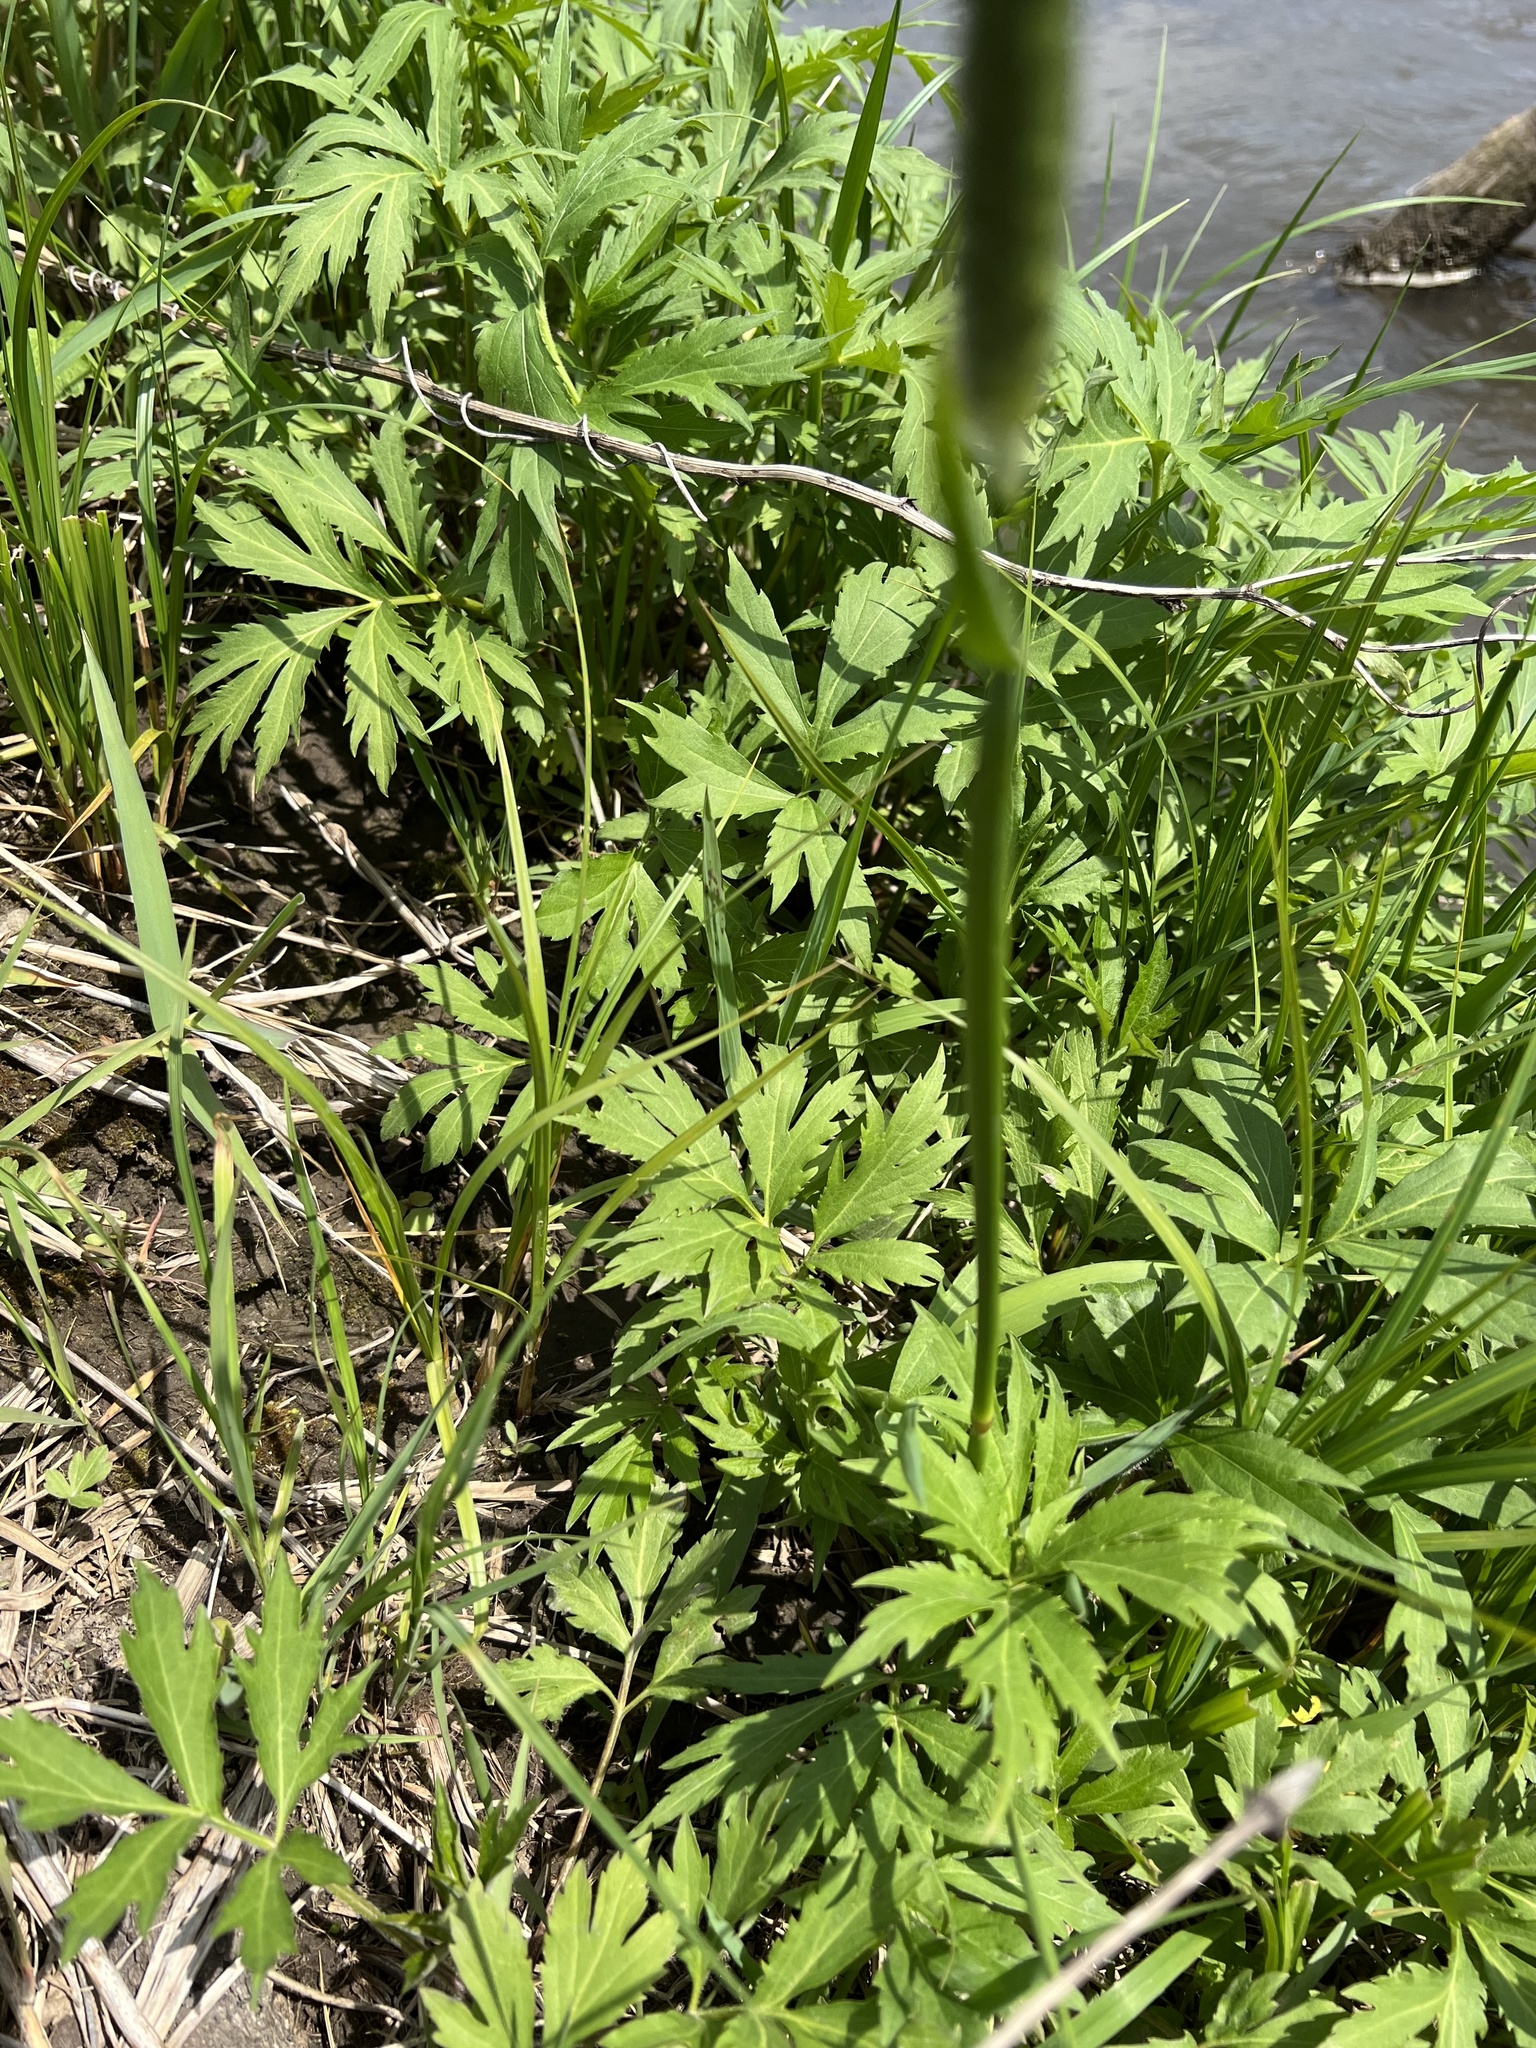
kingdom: Plantae
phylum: Tracheophyta
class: Liliopsida
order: Poales
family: Poaceae
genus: Phleum
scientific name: Phleum pratense
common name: Timothy grass
